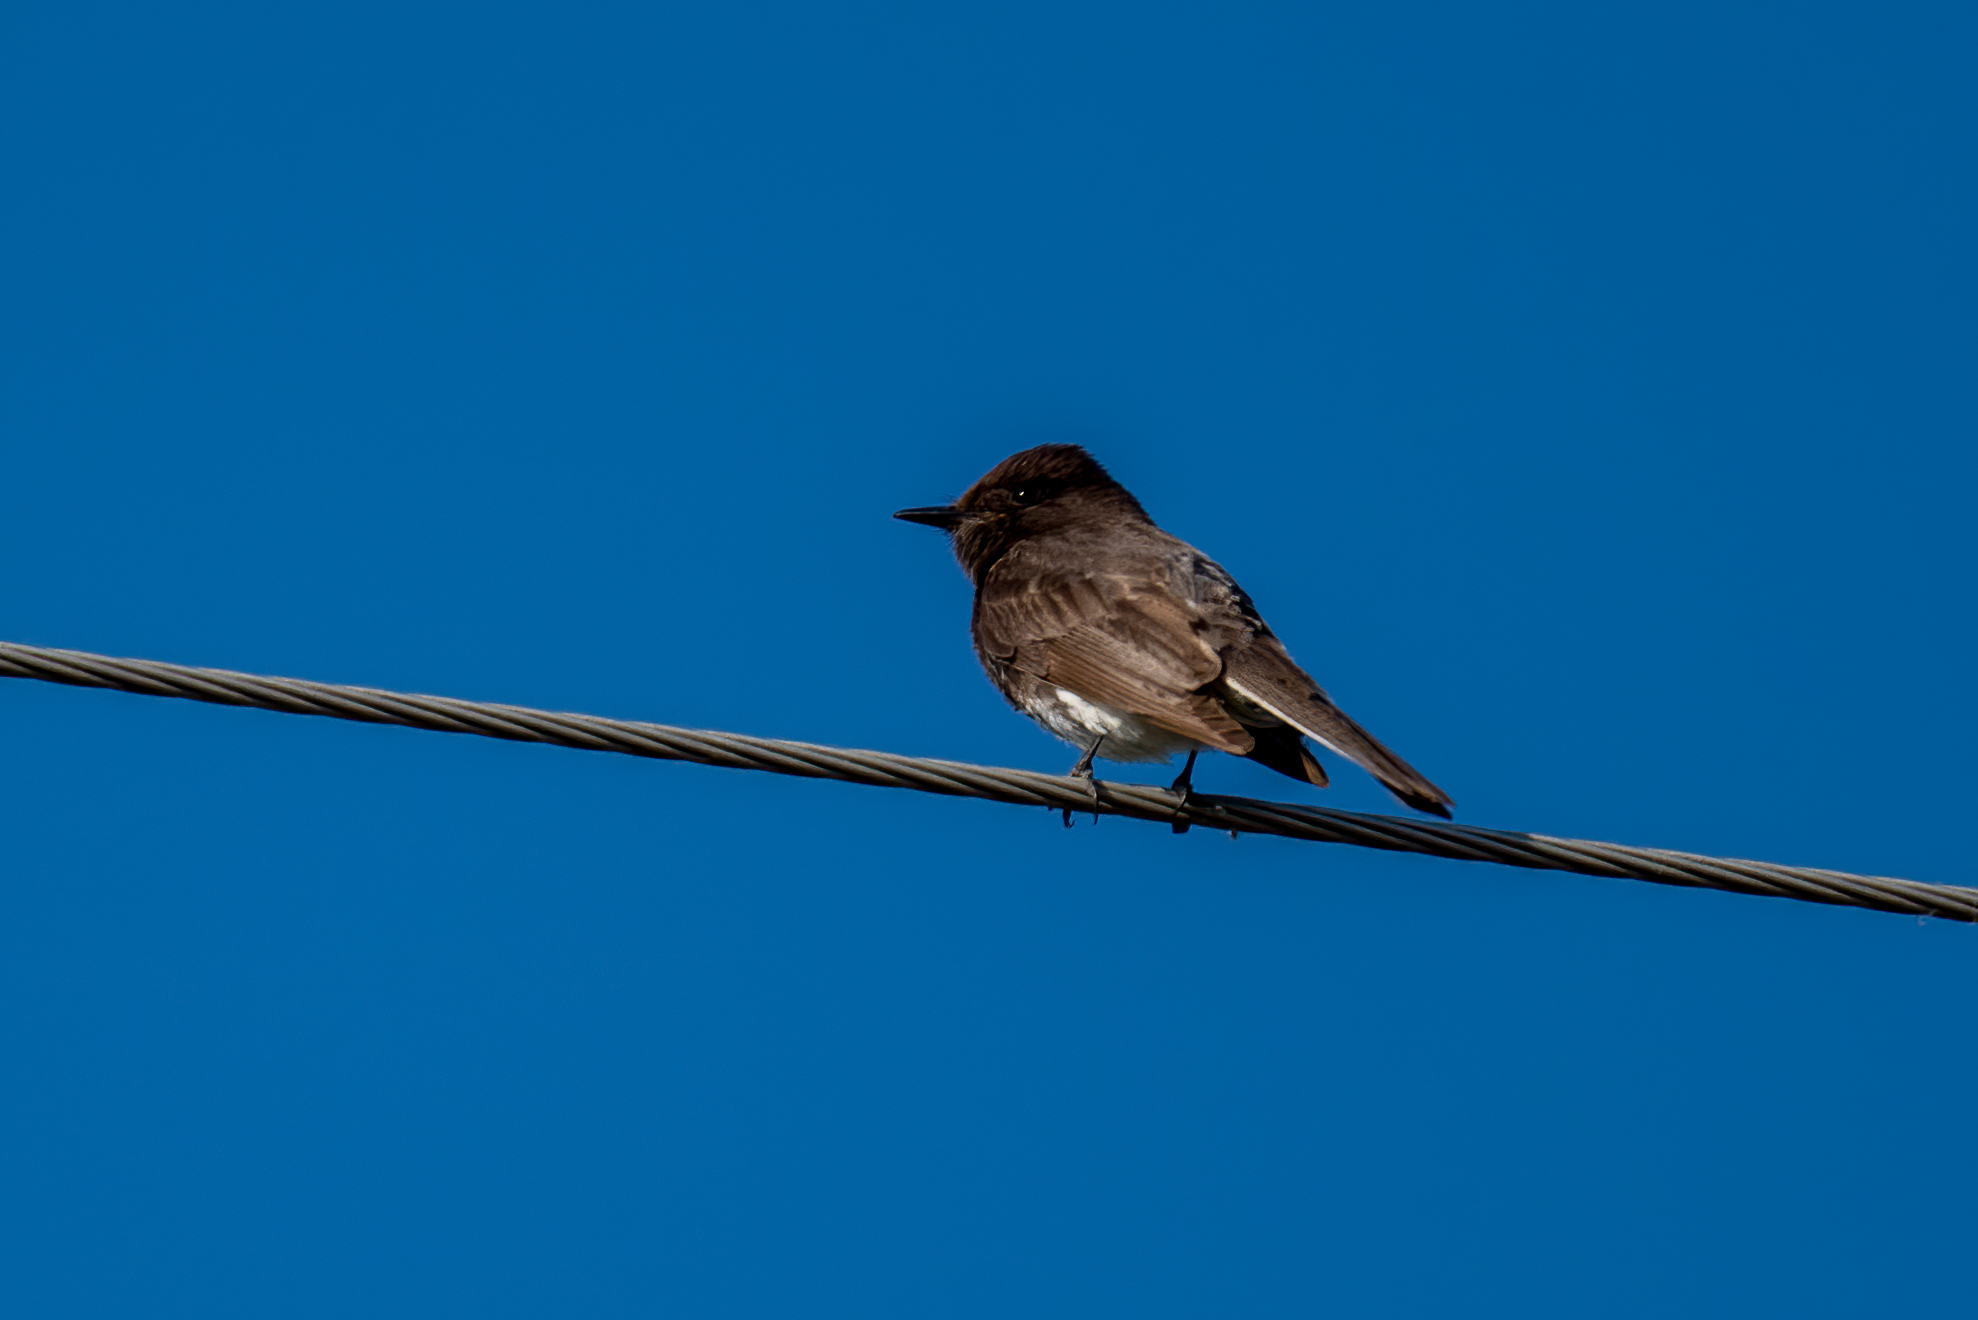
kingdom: Animalia
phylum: Chordata
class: Aves
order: Passeriformes
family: Tyrannidae
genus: Sayornis
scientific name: Sayornis nigricans
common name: Black phoebe
